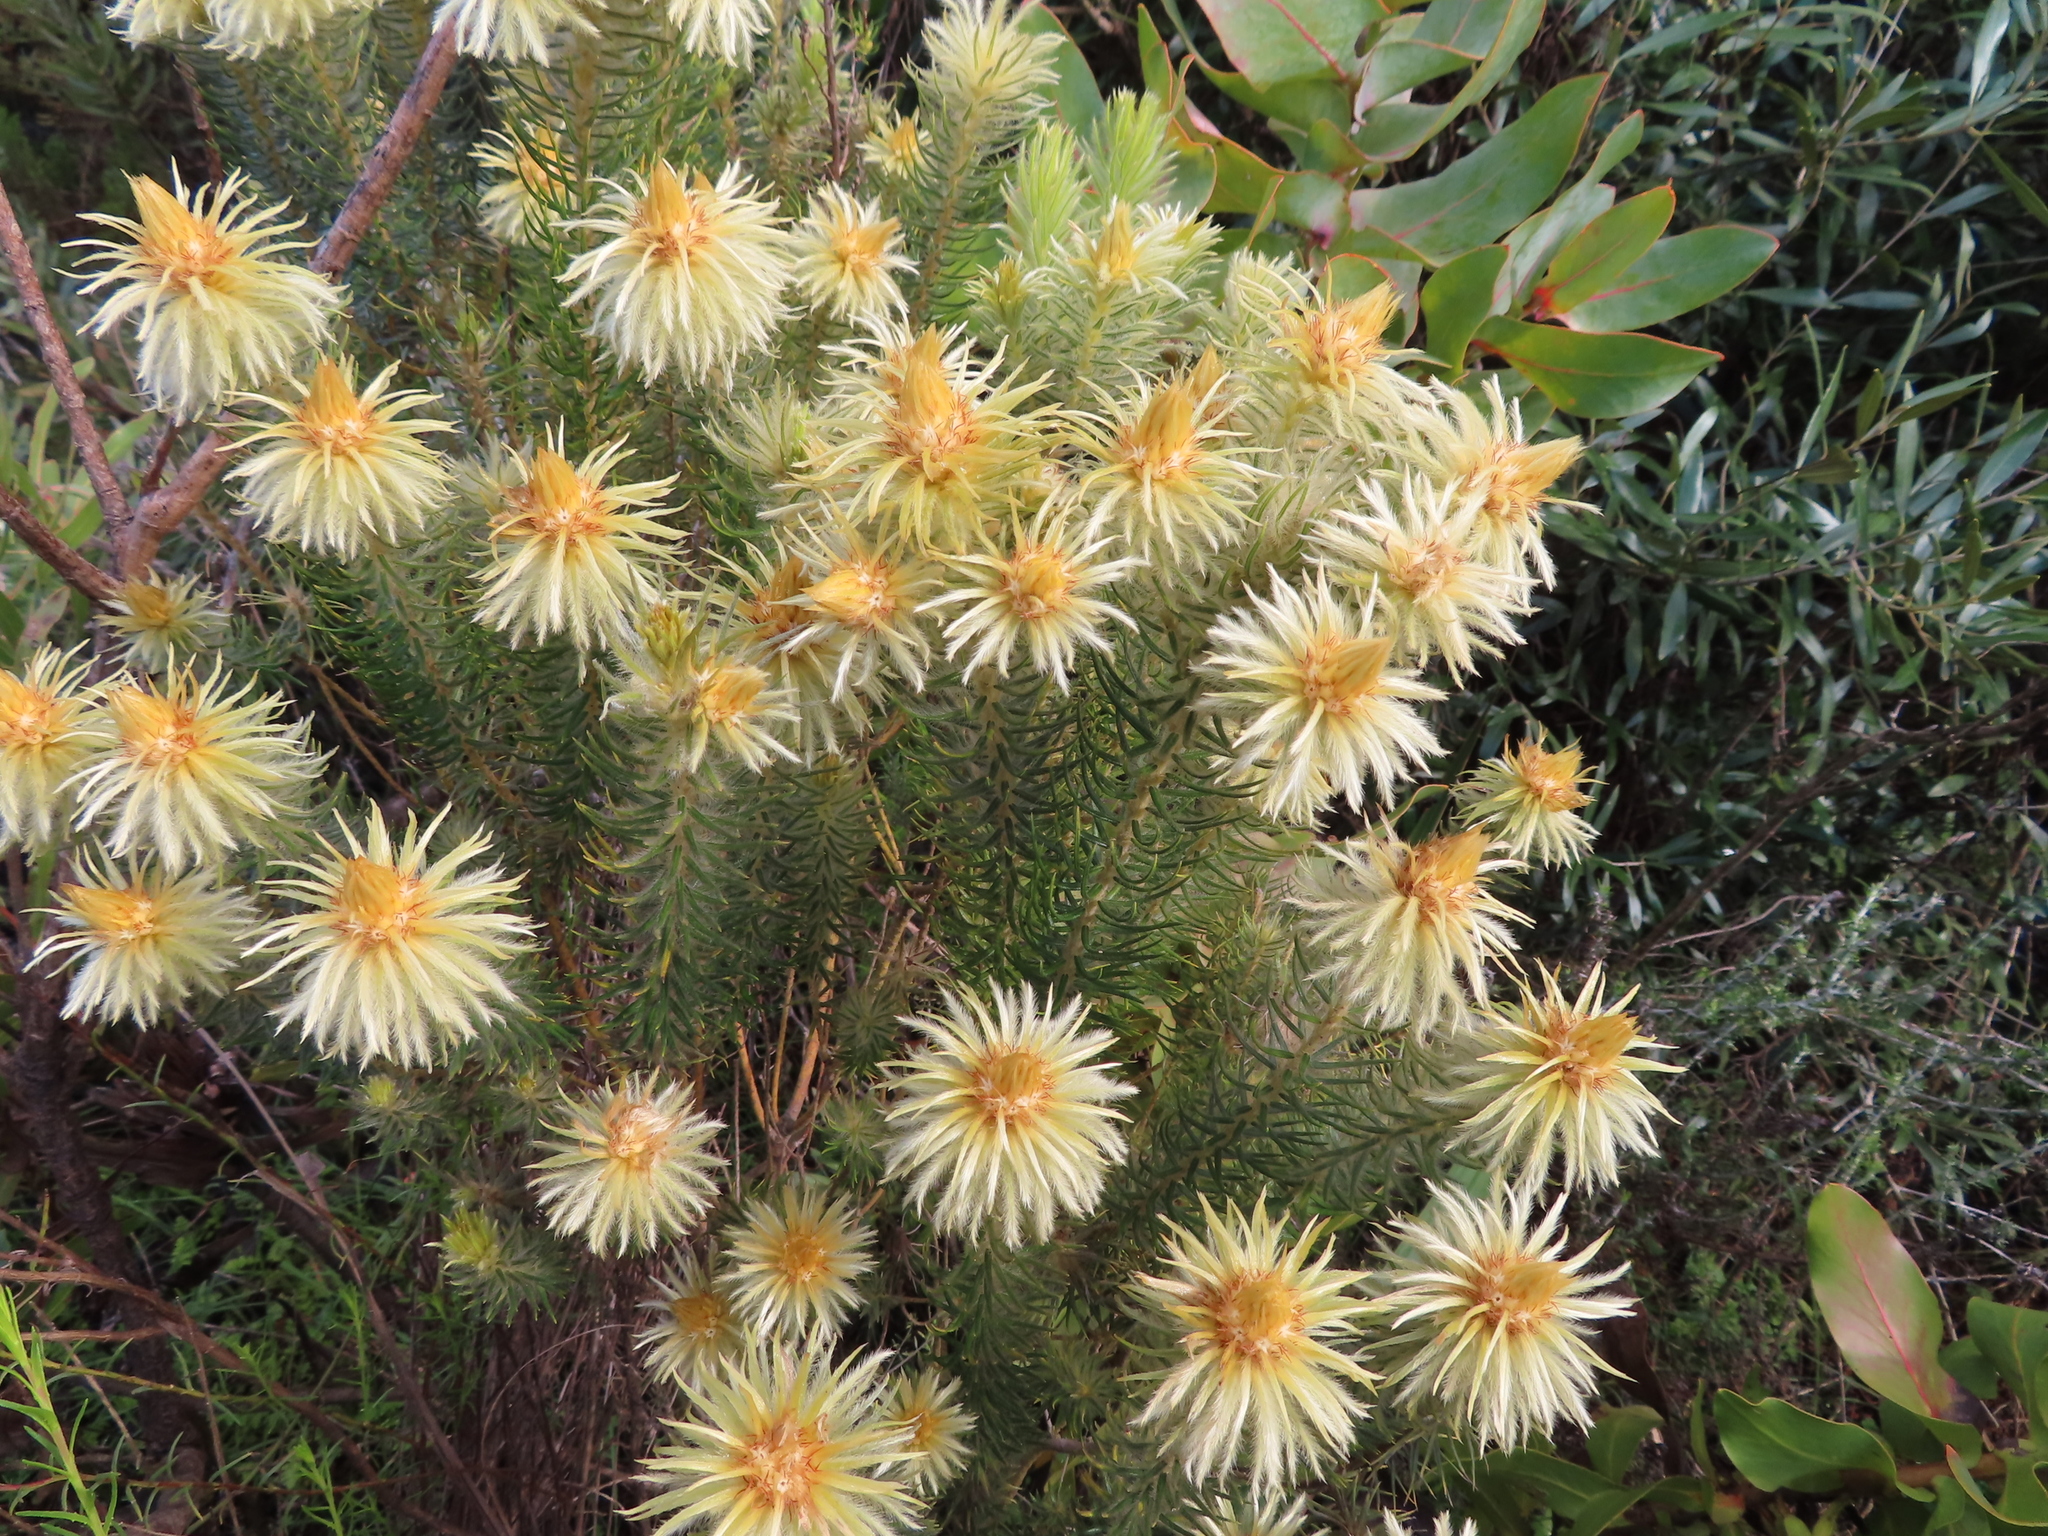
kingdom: Plantae
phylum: Tracheophyta
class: Magnoliopsida
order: Rosales
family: Rhamnaceae
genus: Phylica
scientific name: Phylica pubescens
